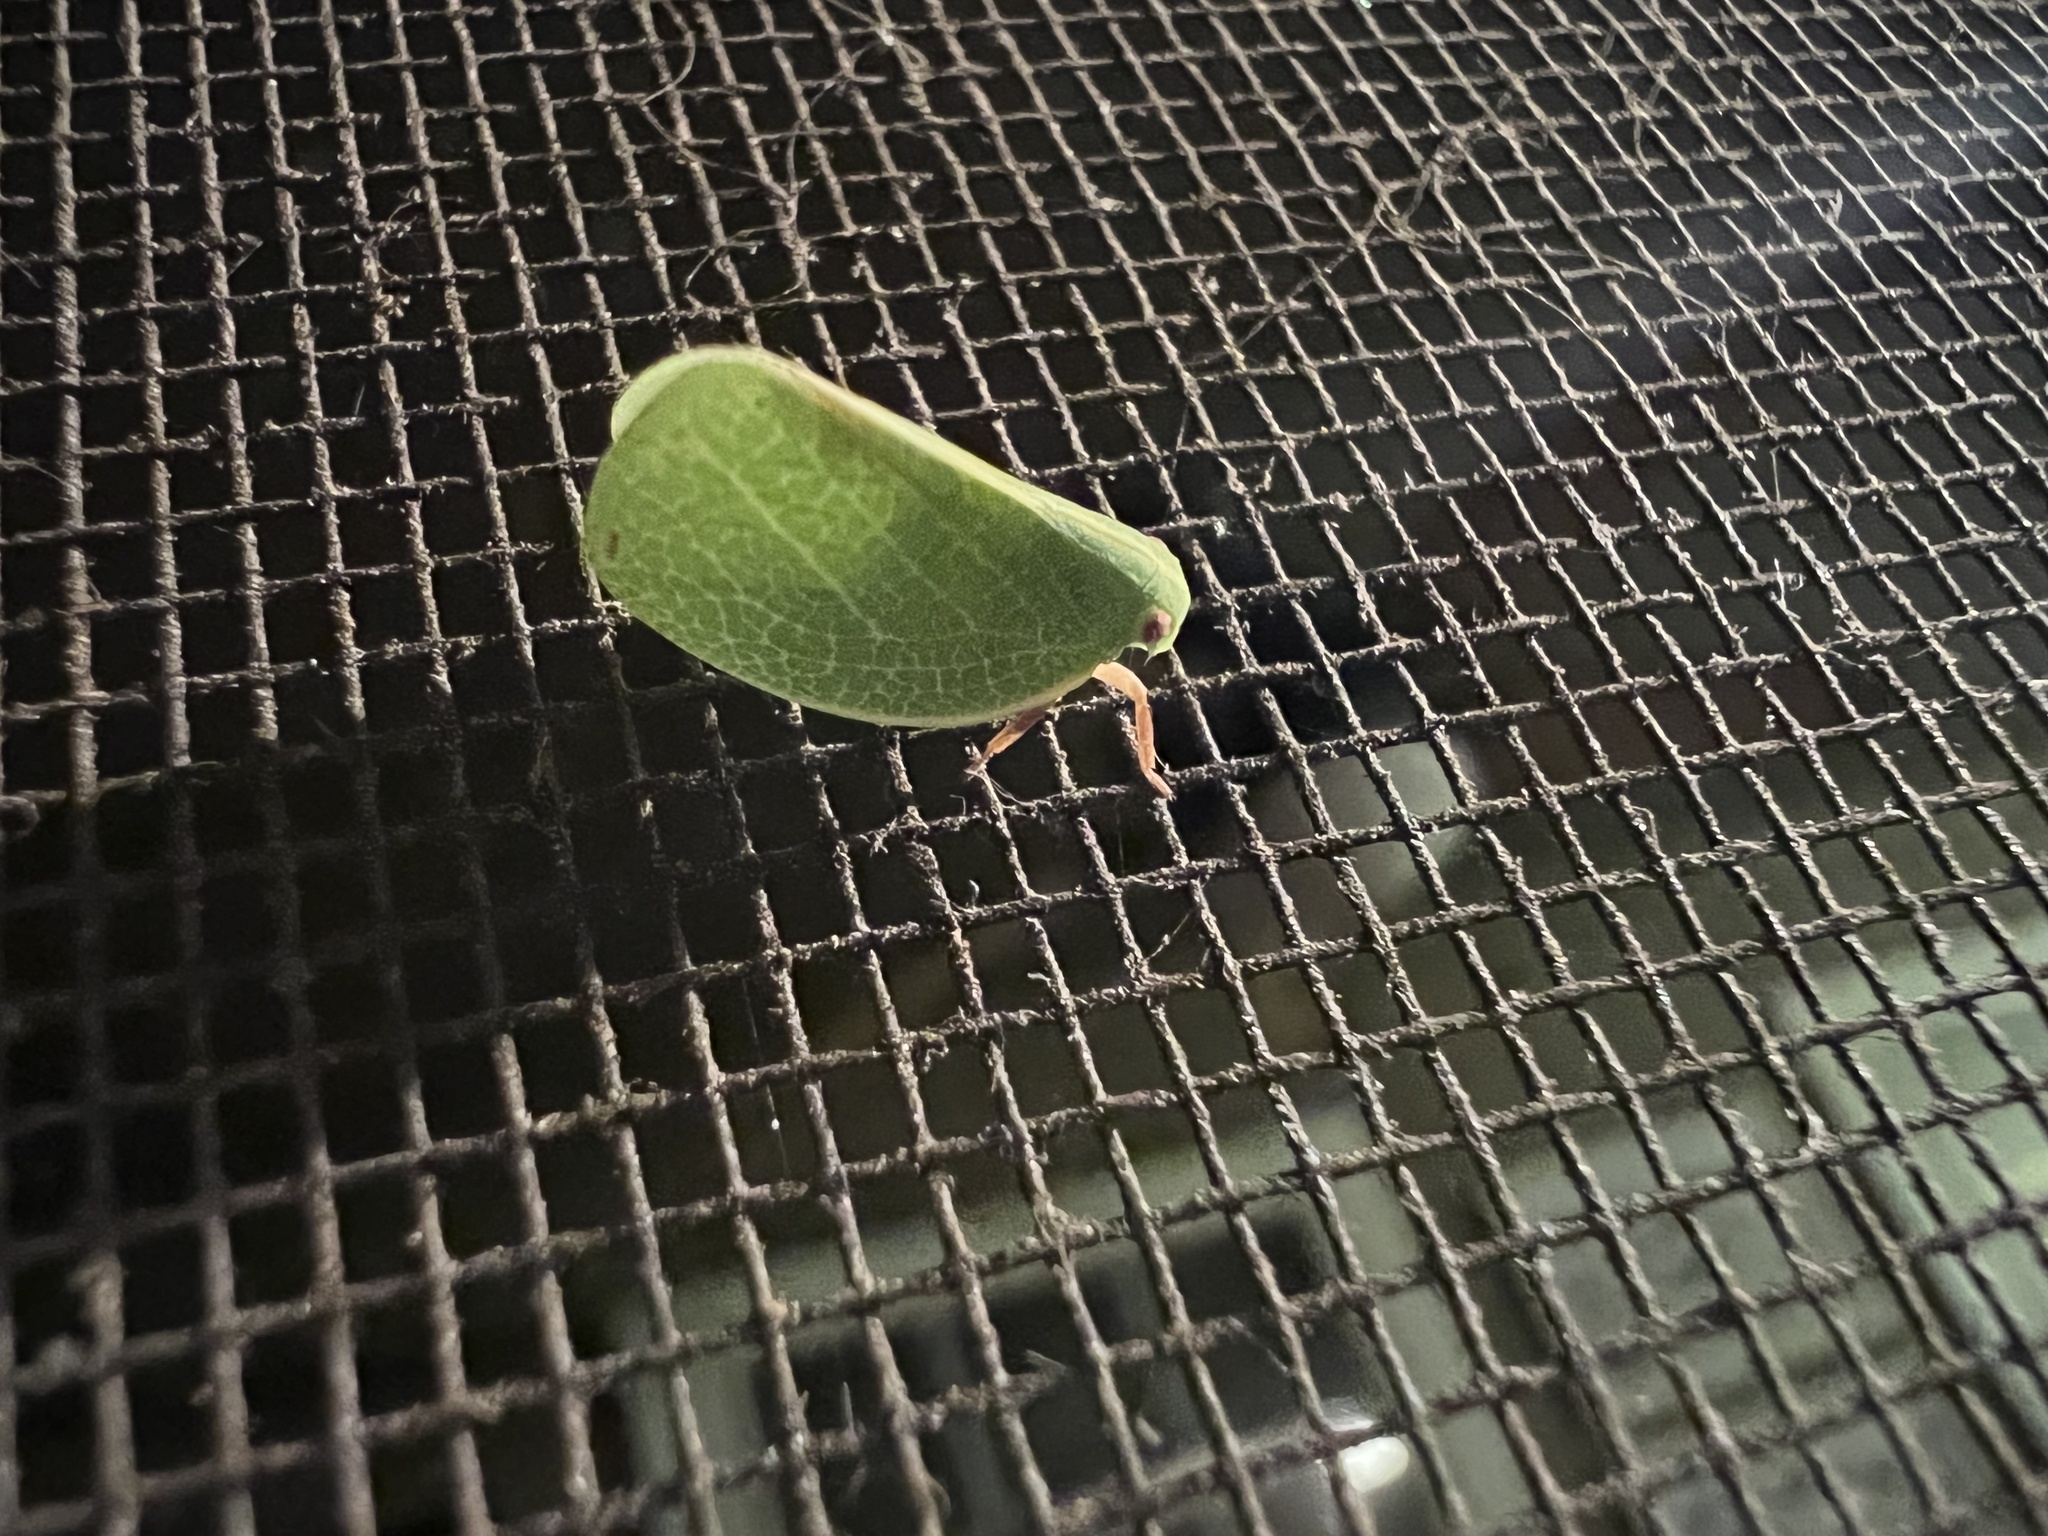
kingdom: Animalia
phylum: Arthropoda
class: Insecta
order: Hemiptera
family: Acanaloniidae
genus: Acanalonia
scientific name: Acanalonia servillei
